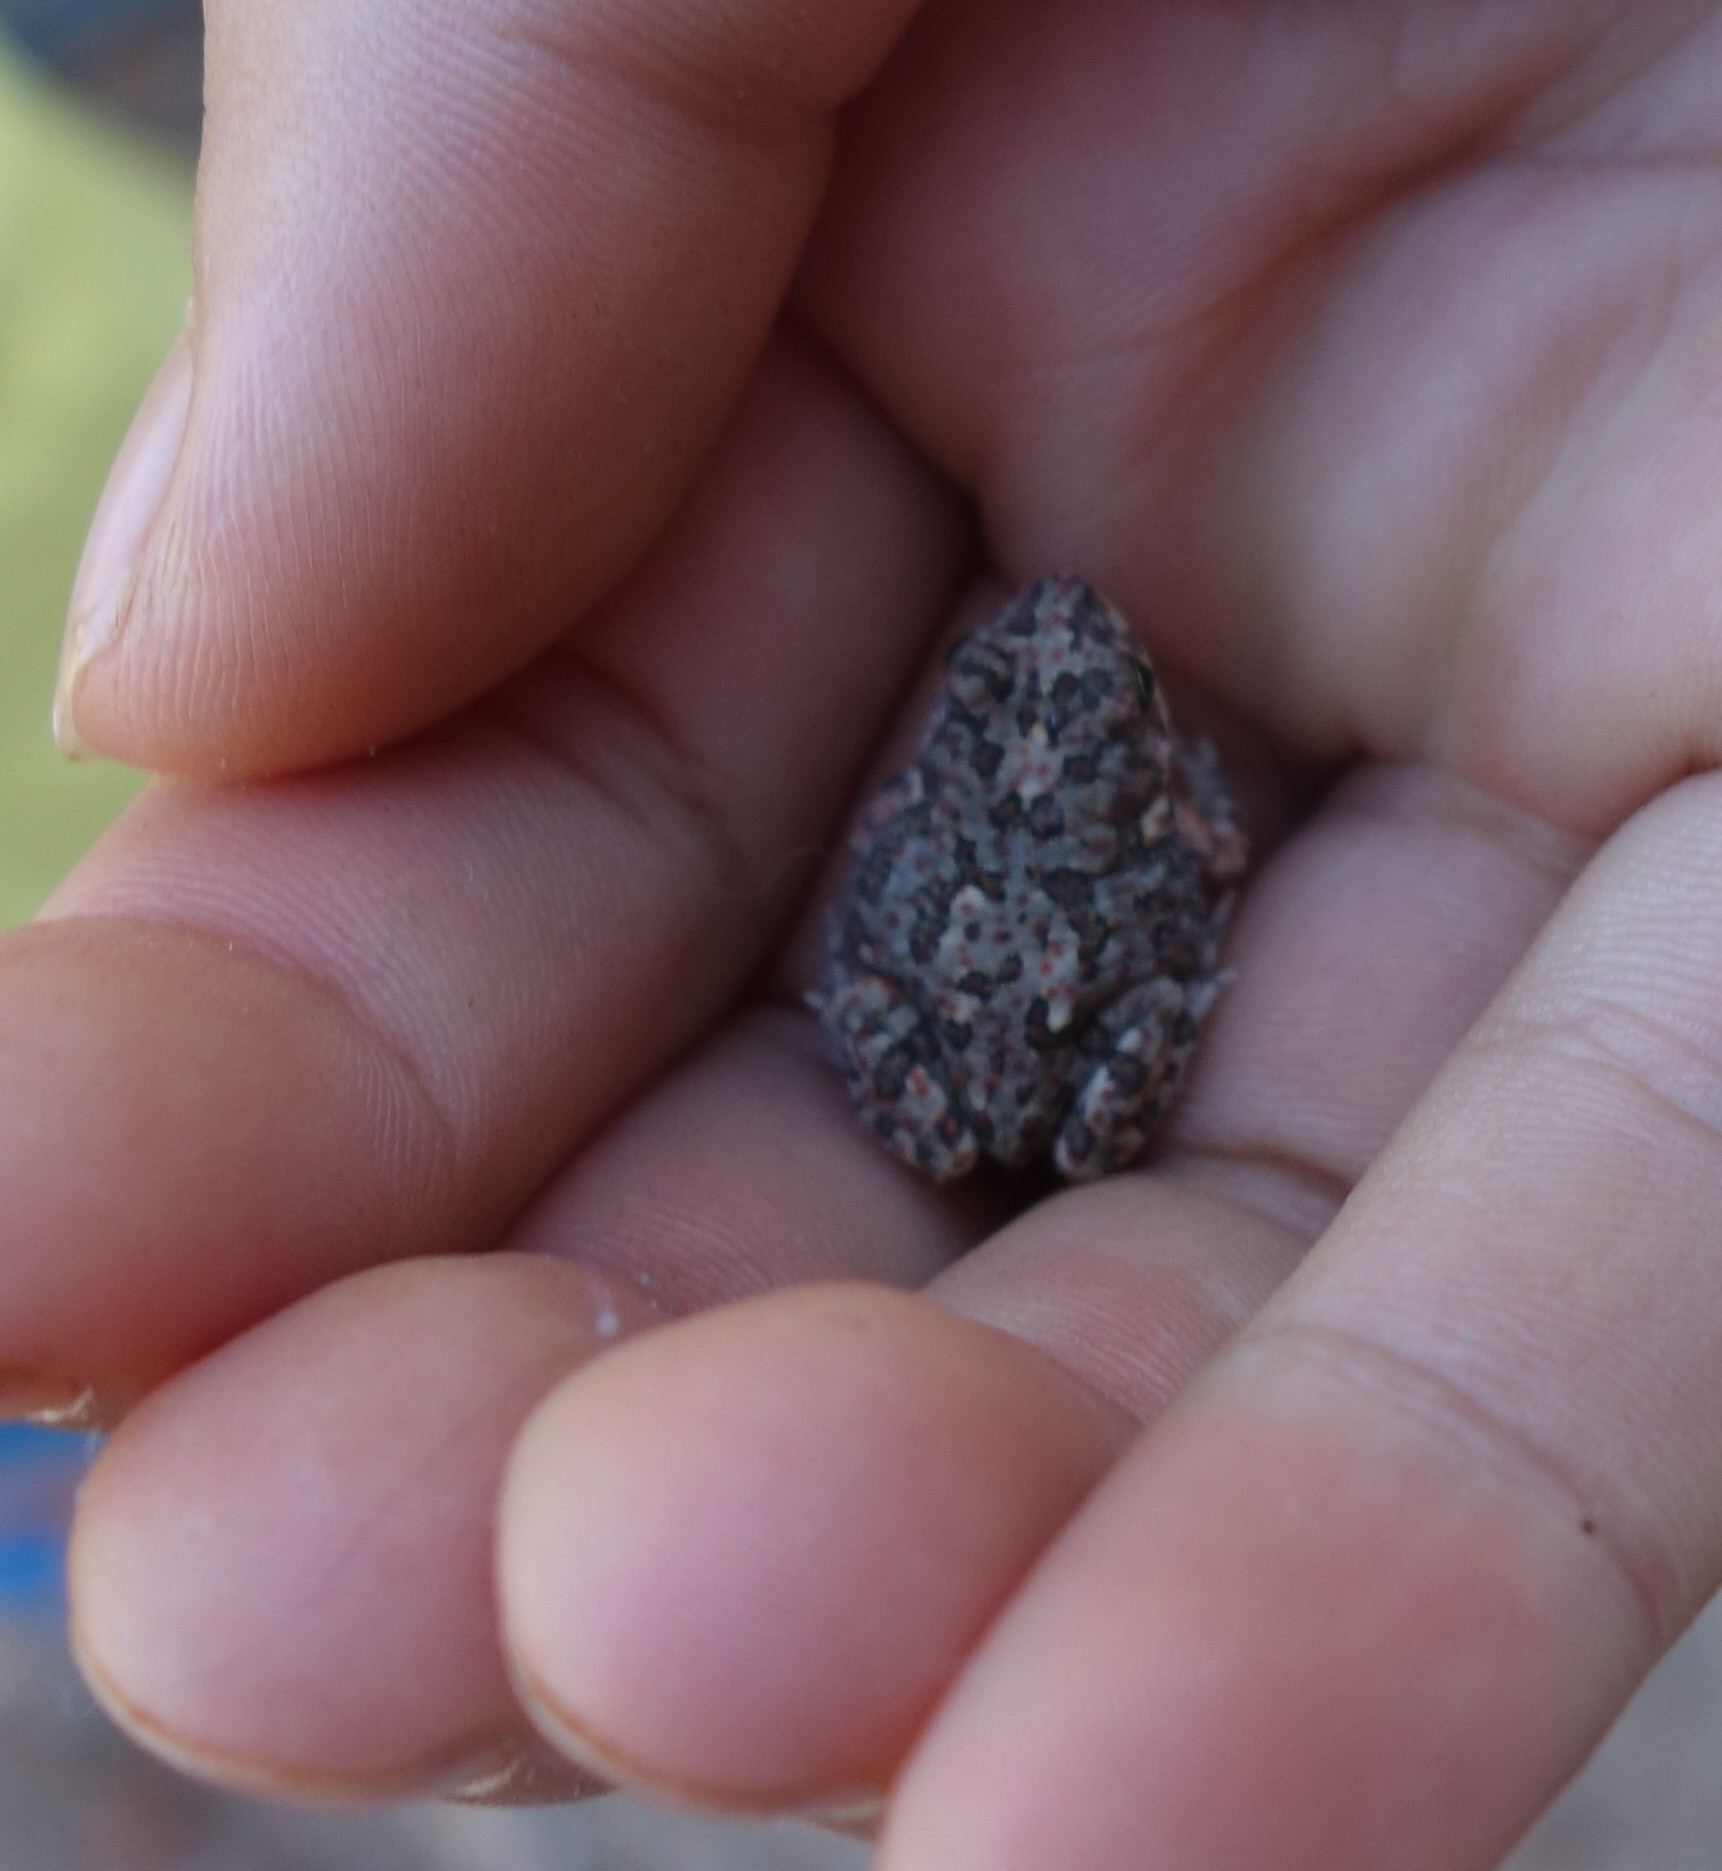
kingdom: Animalia
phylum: Chordata
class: Amphibia
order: Anura
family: Bufonidae
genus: Poyntonophrynus
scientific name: Poyntonophrynus fenoulheti
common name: Fenoulhet's toad
